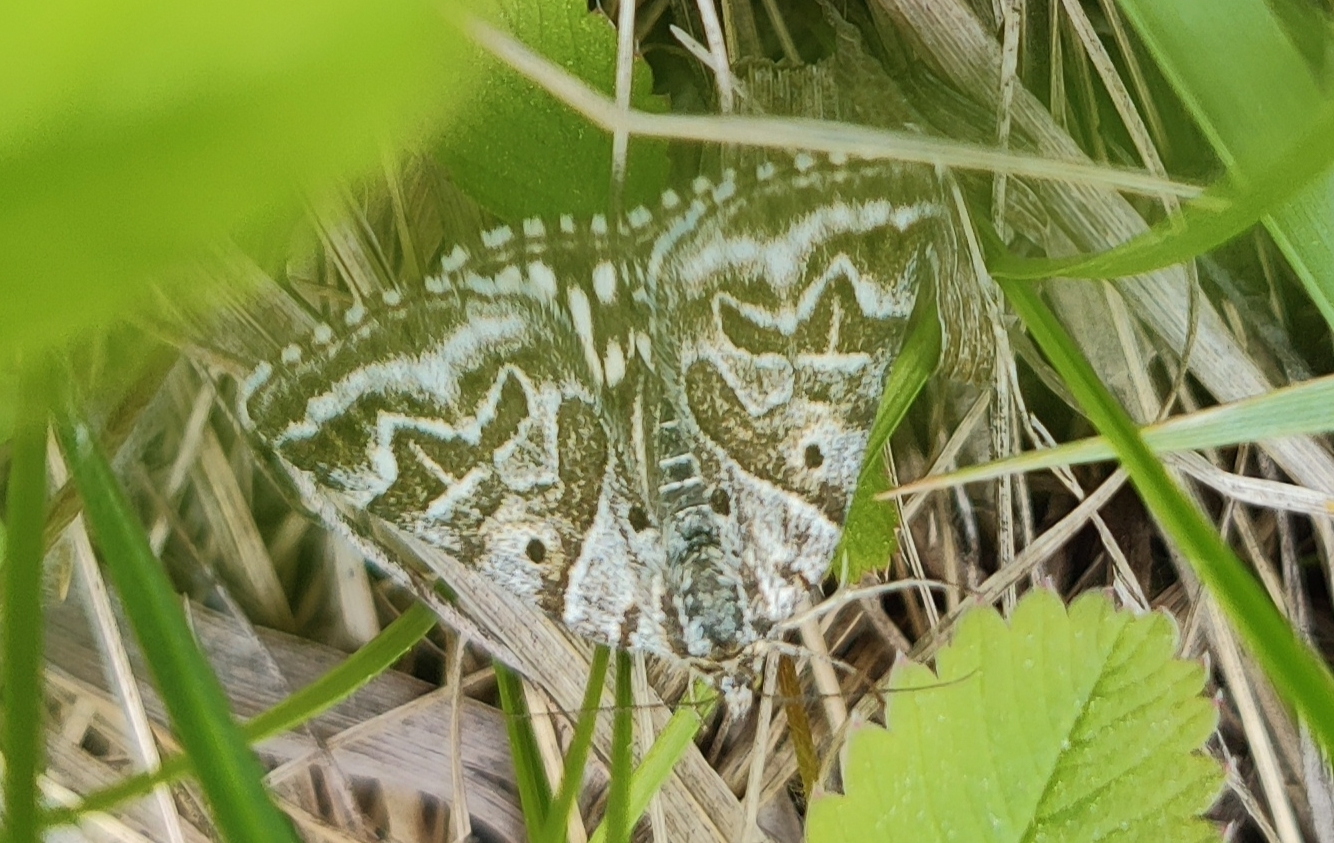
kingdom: Animalia
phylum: Arthropoda
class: Insecta
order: Lepidoptera
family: Erebidae
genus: Callistege
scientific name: Callistege mi
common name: Mother shipton
